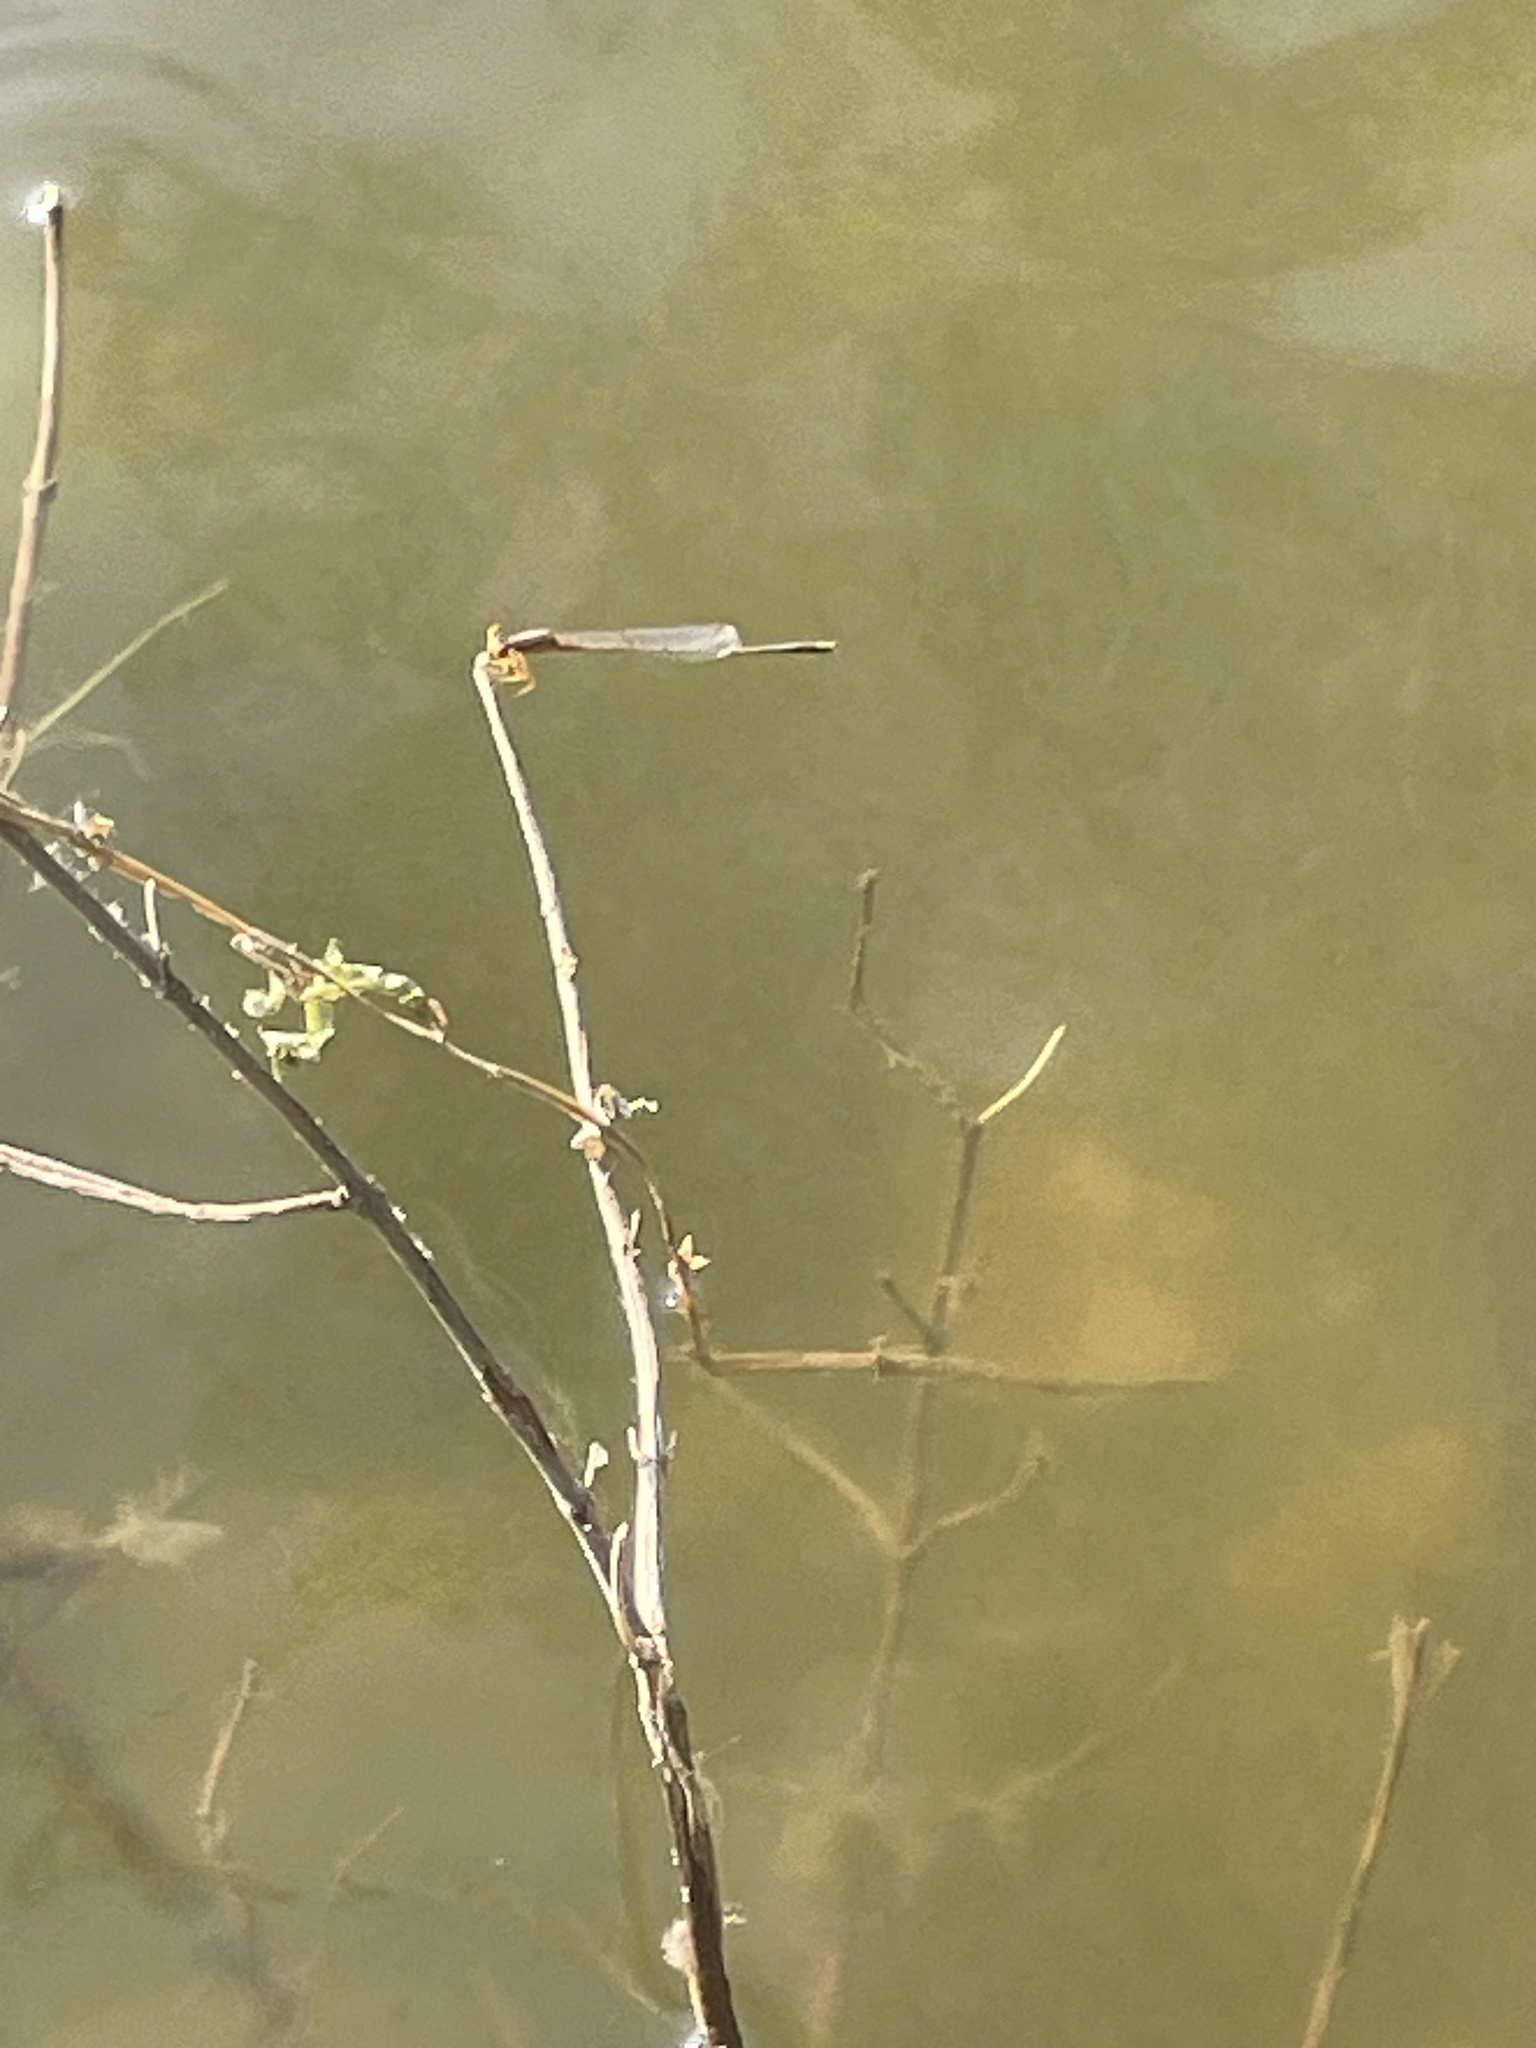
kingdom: Animalia
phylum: Arthropoda
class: Insecta
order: Odonata
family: Coenagrionidae
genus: Enallagma
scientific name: Enallagma signatum
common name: Orange bluet
